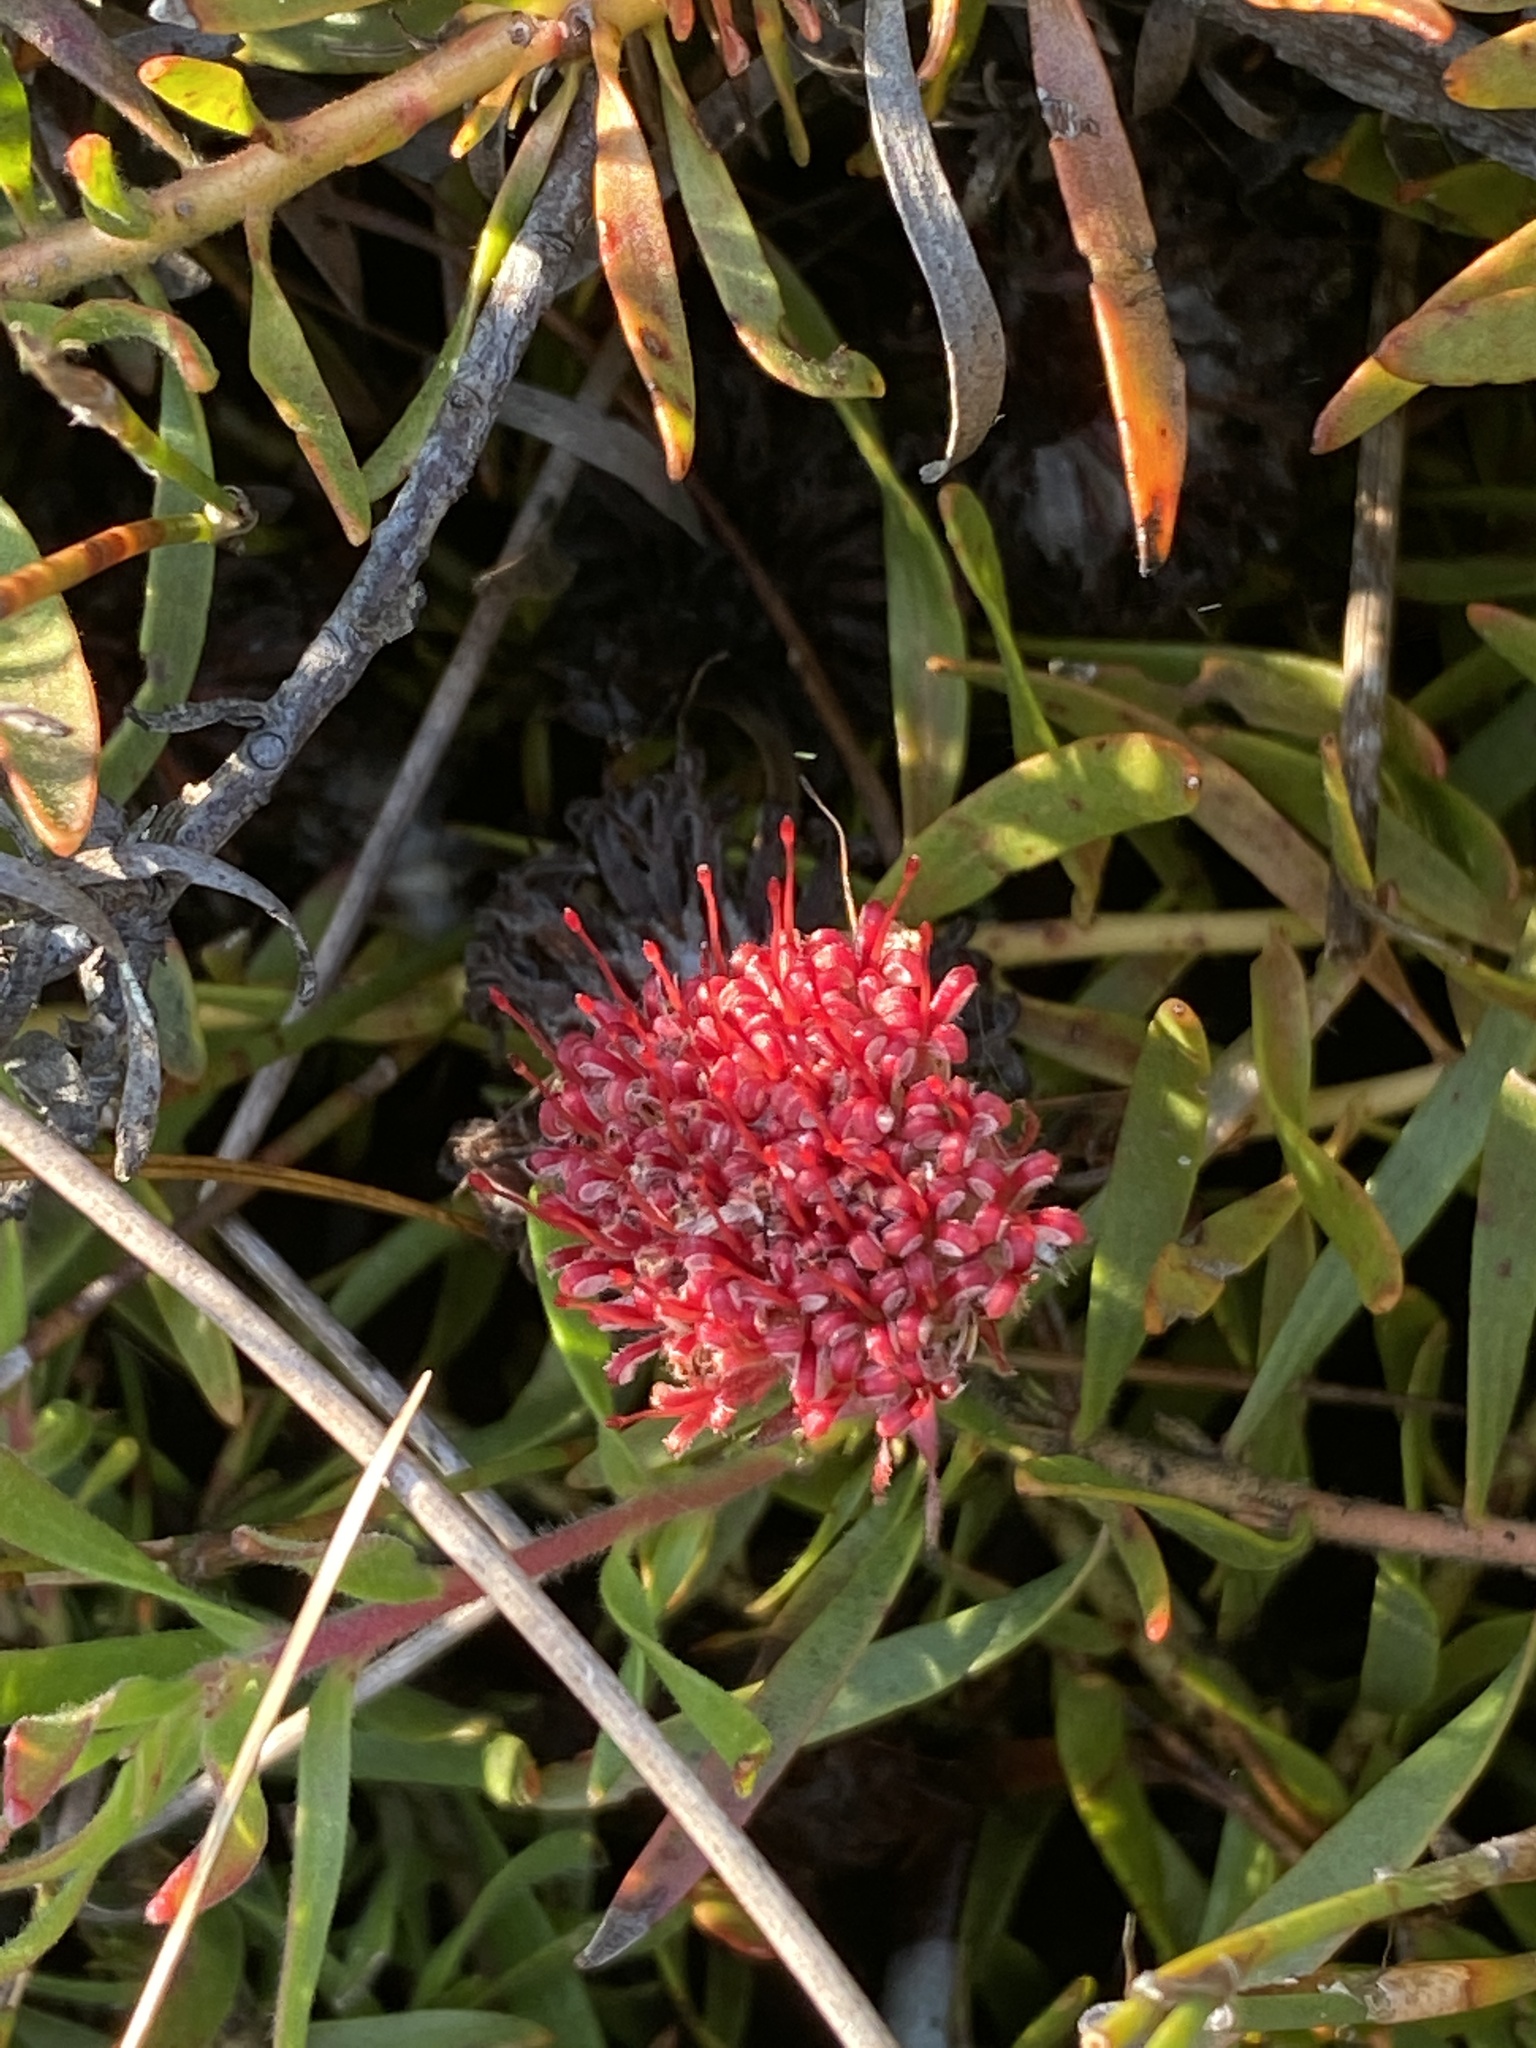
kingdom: Plantae
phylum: Tracheophyta
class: Magnoliopsida
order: Proteales
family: Proteaceae
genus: Leucospermum
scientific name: Leucospermum pedunculatum
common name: White-trailing pincushion
